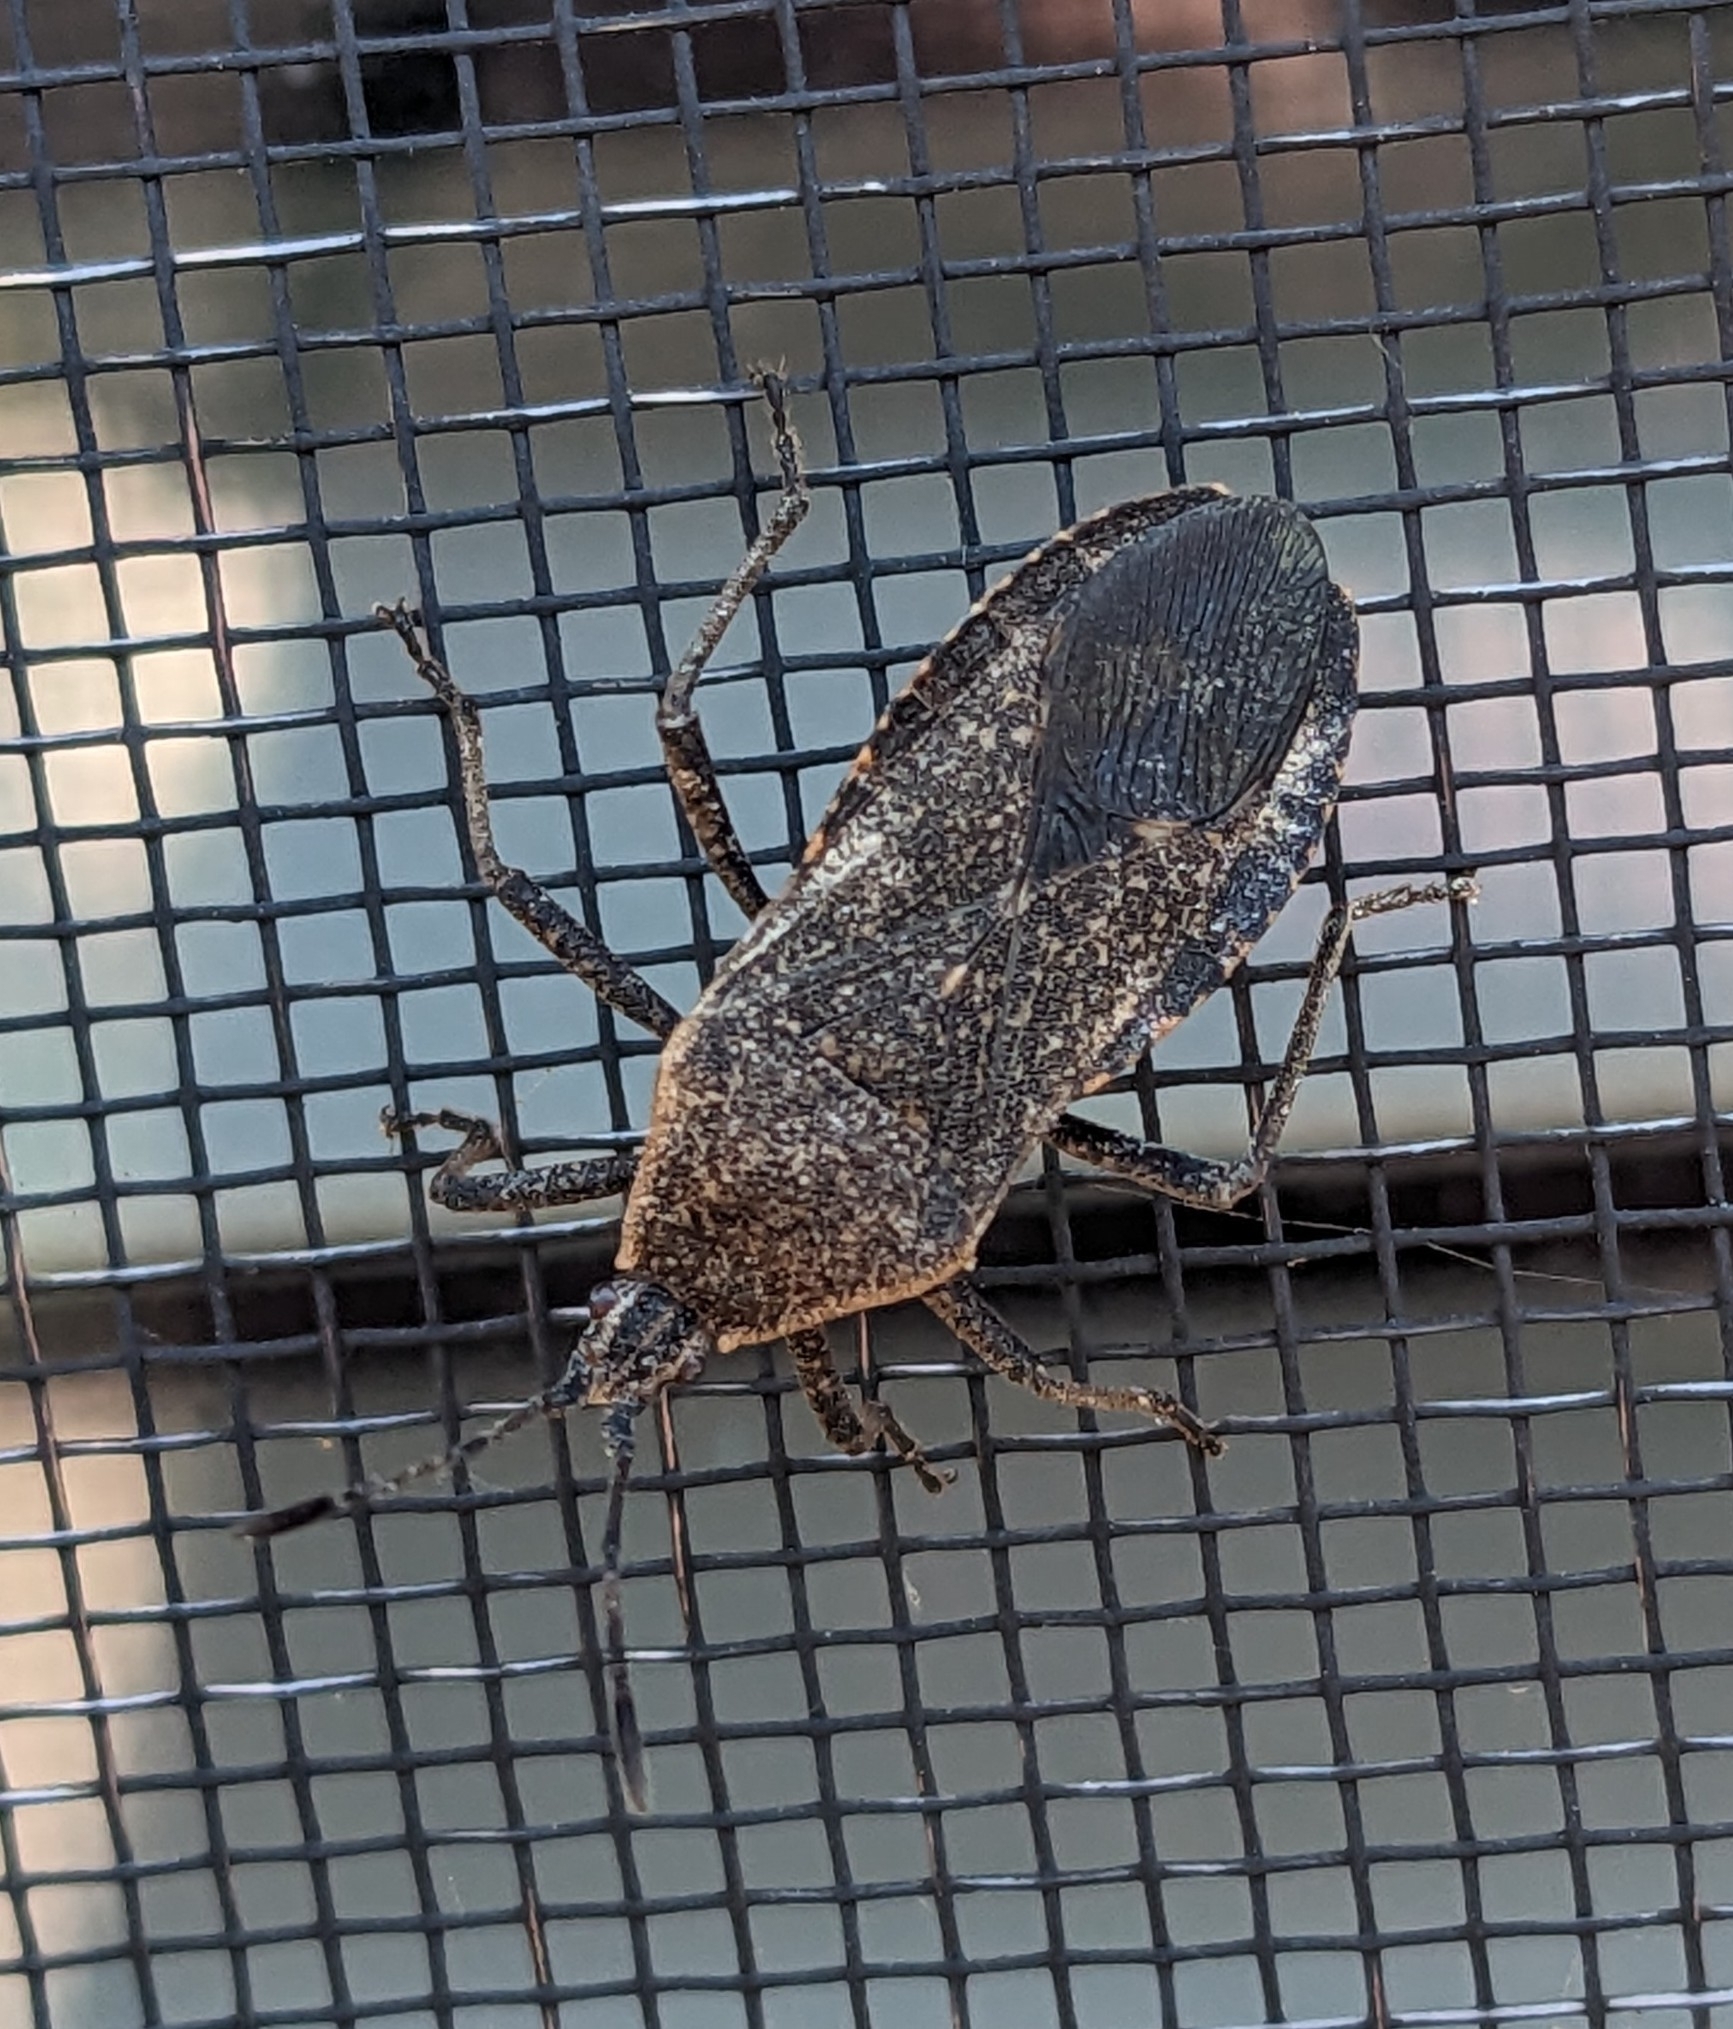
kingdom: Animalia
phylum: Arthropoda
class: Insecta
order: Hemiptera
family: Coreidae
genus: Anasa
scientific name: Anasa tristis
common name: Squash bug
